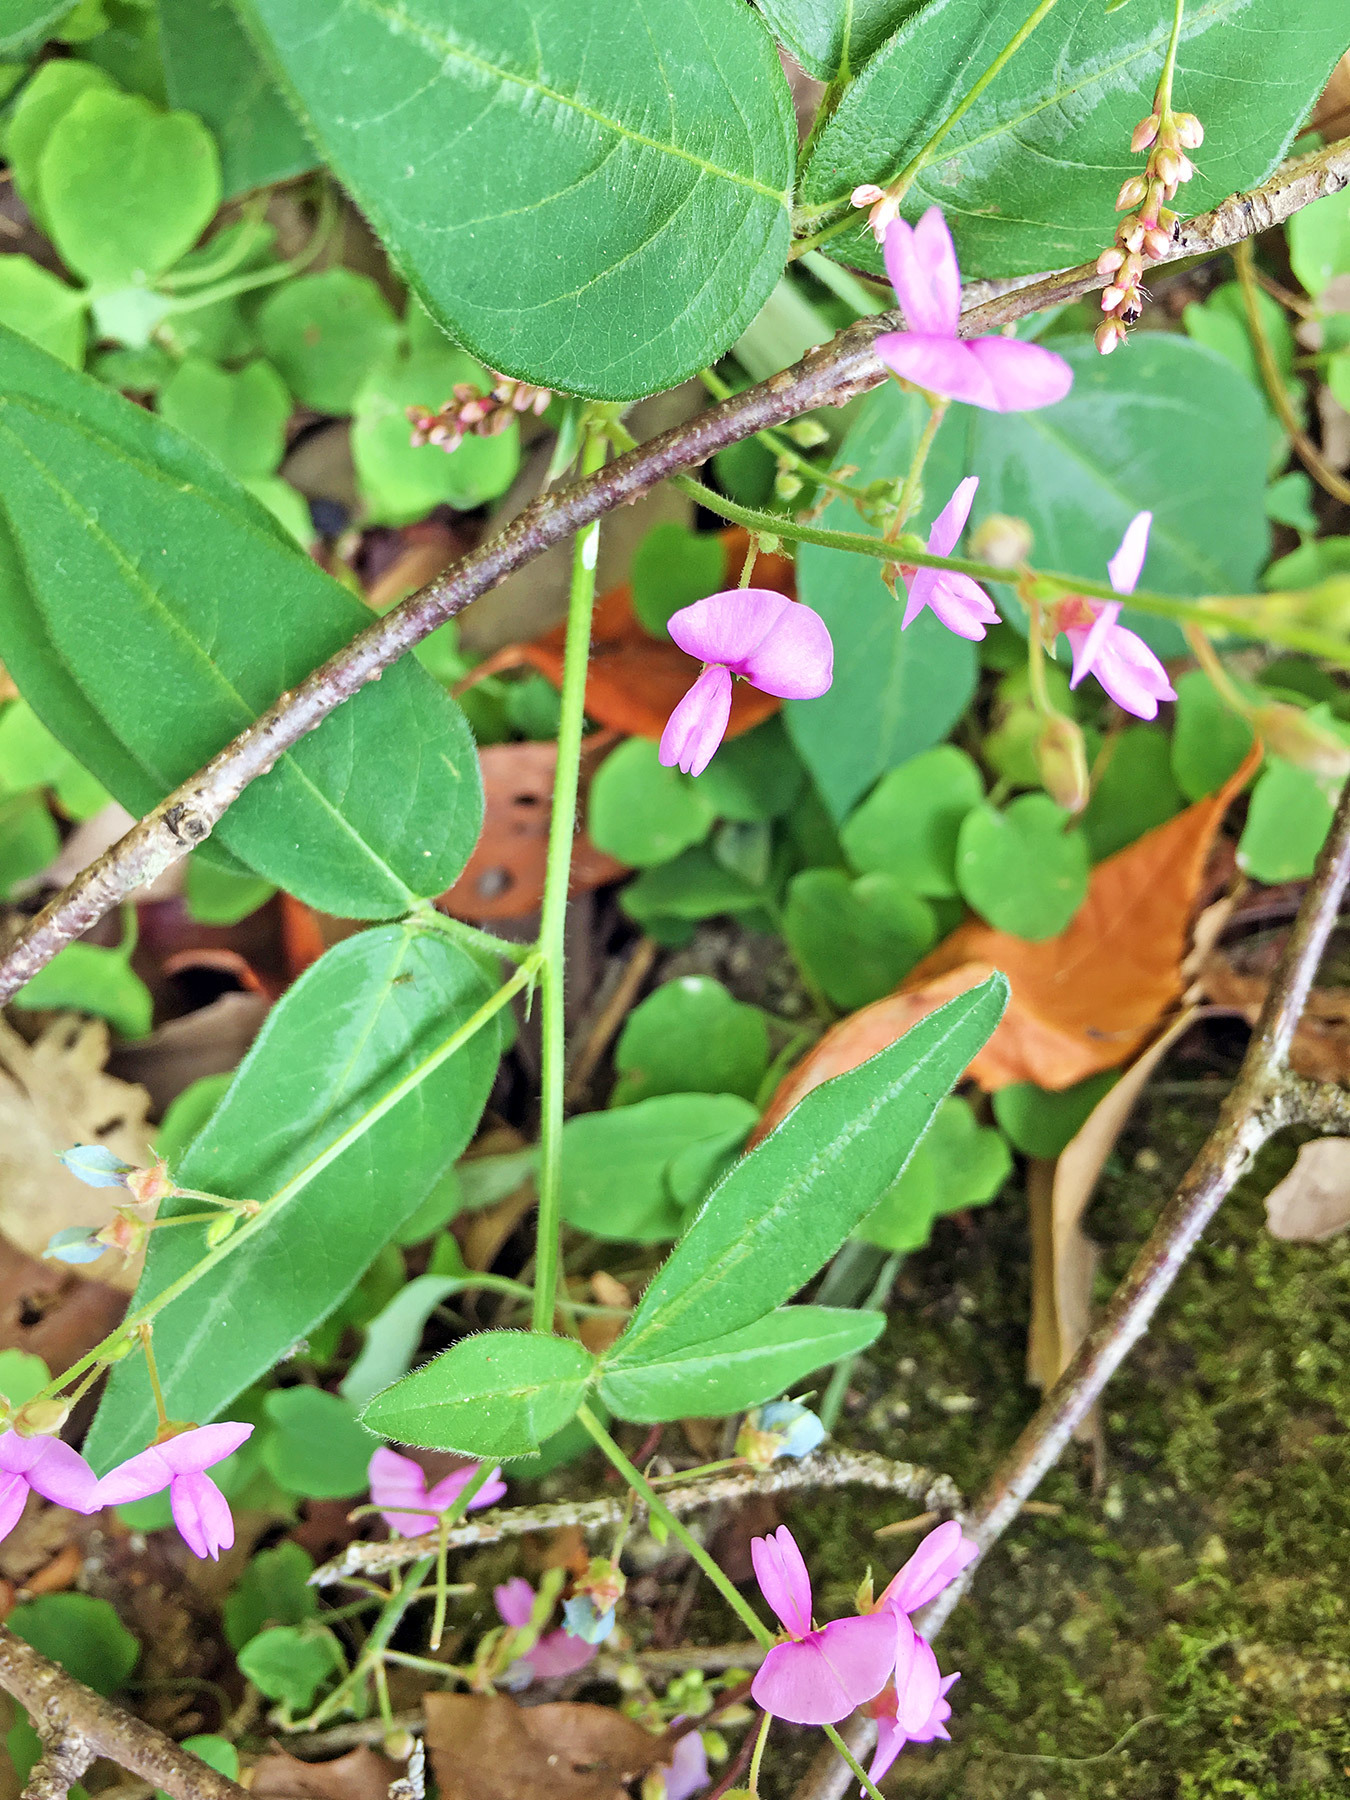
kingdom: Plantae
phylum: Tracheophyta
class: Magnoliopsida
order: Fabales
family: Fabaceae
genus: Desmodium
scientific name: Desmodium paniculatum
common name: Panicled tick-clover
